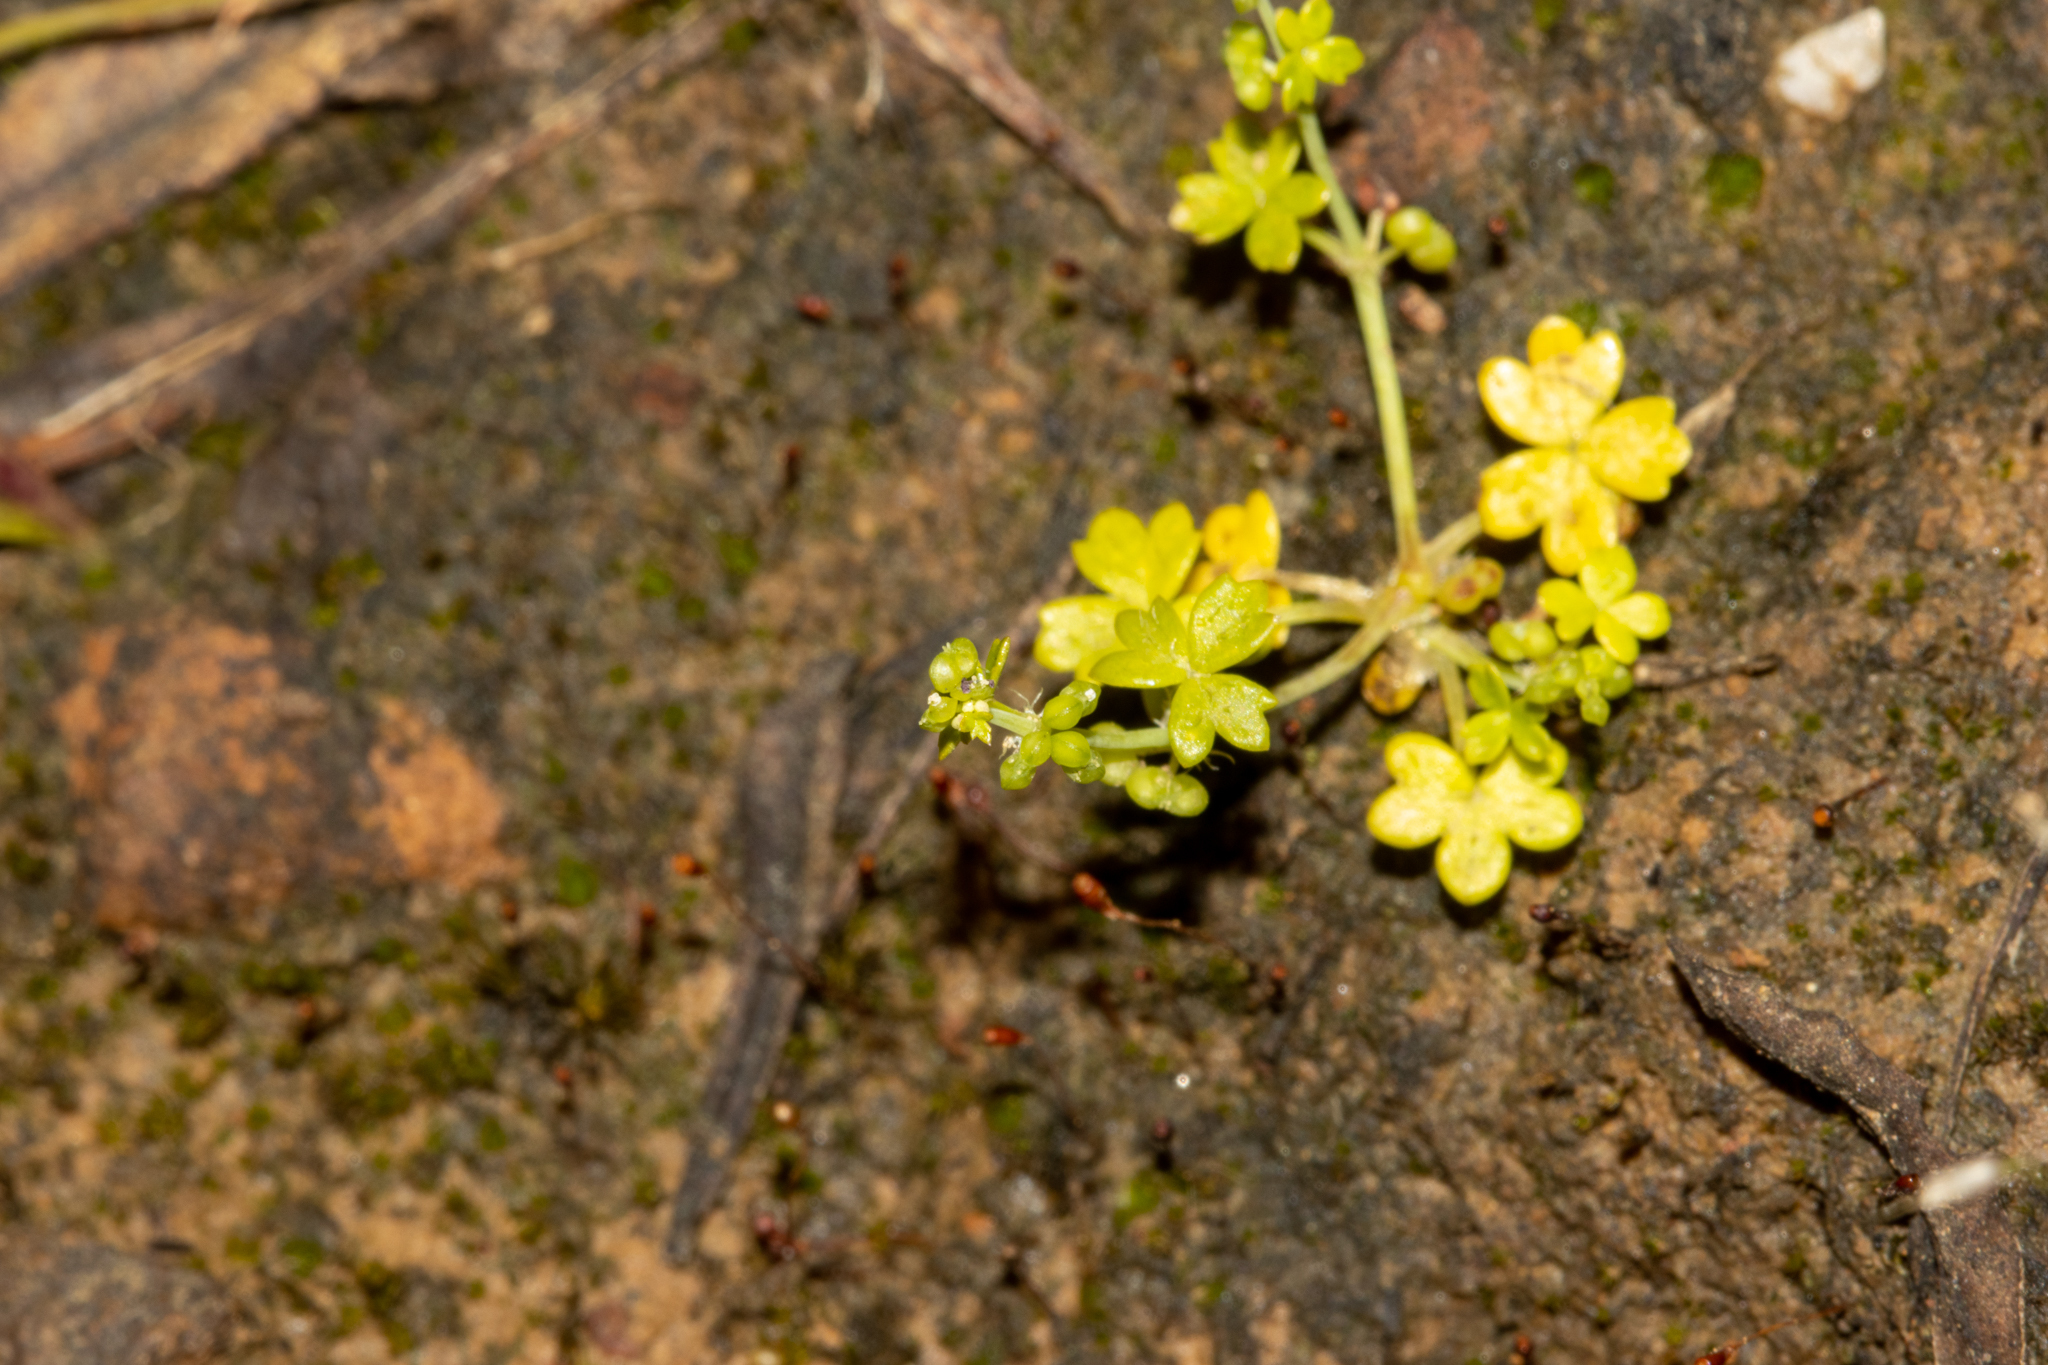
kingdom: Plantae
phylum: Tracheophyta
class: Magnoliopsida
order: Apiales
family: Araliaceae
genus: Hydrocotyle
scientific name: Hydrocotyle foveolata
